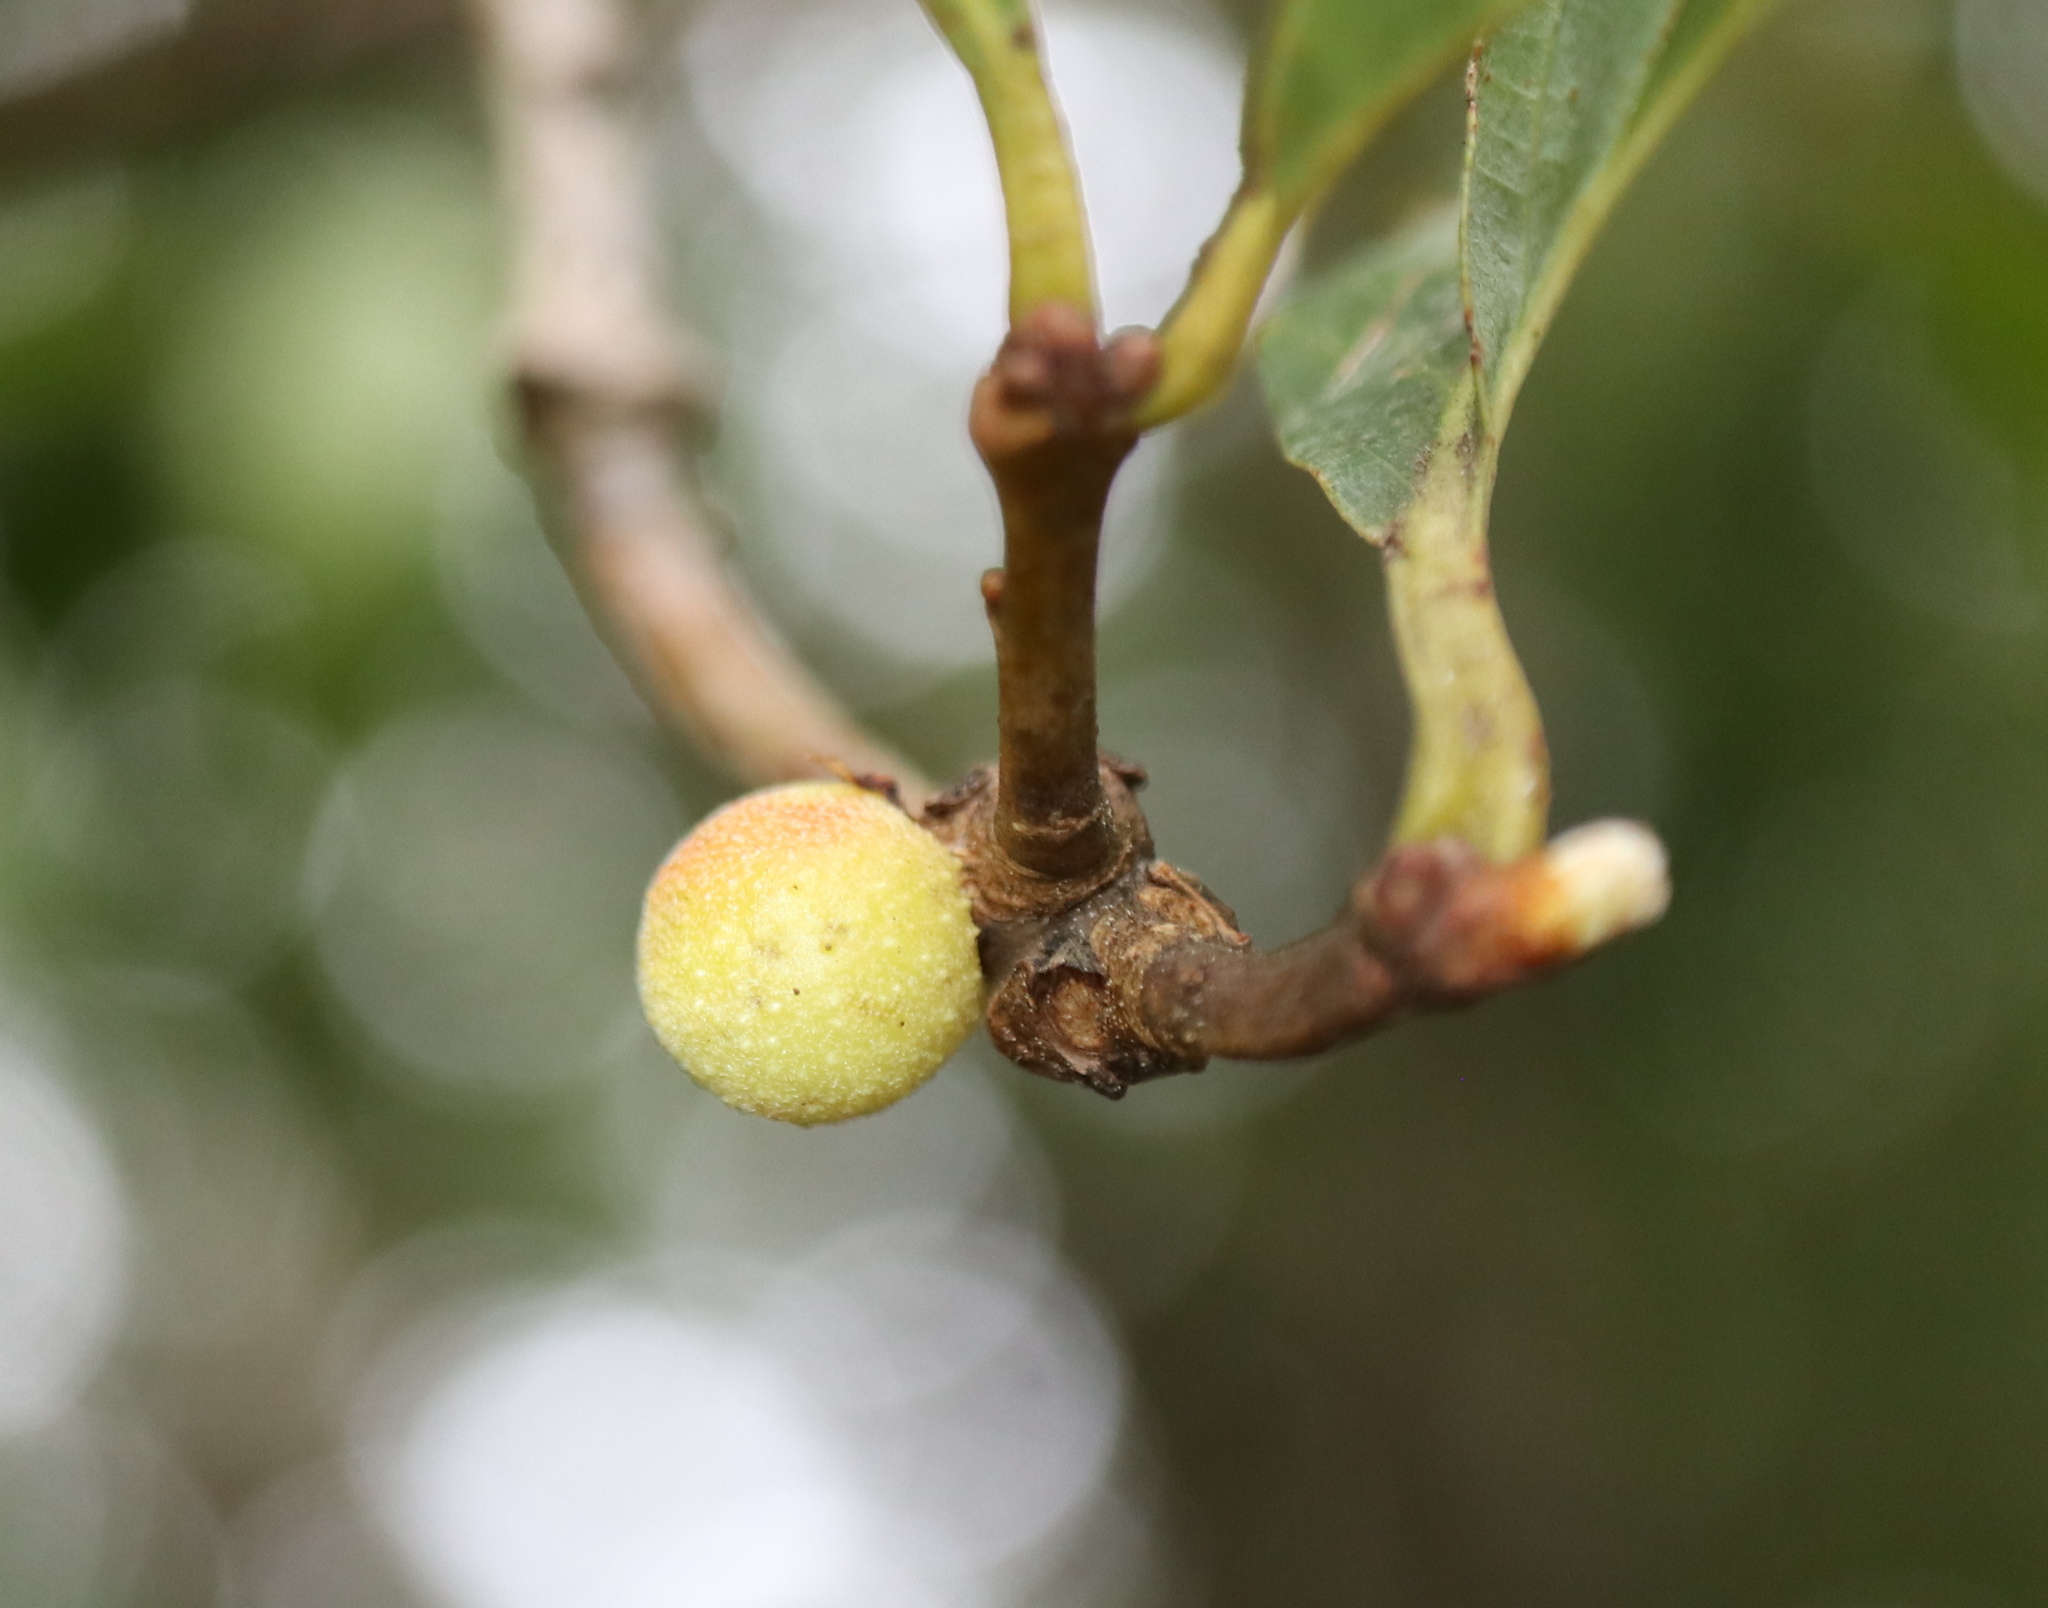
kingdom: Animalia
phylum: Arthropoda
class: Insecta
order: Hymenoptera
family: Cynipidae
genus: Disholcaspis
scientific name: Disholcaspis quercusglobulus
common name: Round bullet gall wasp
